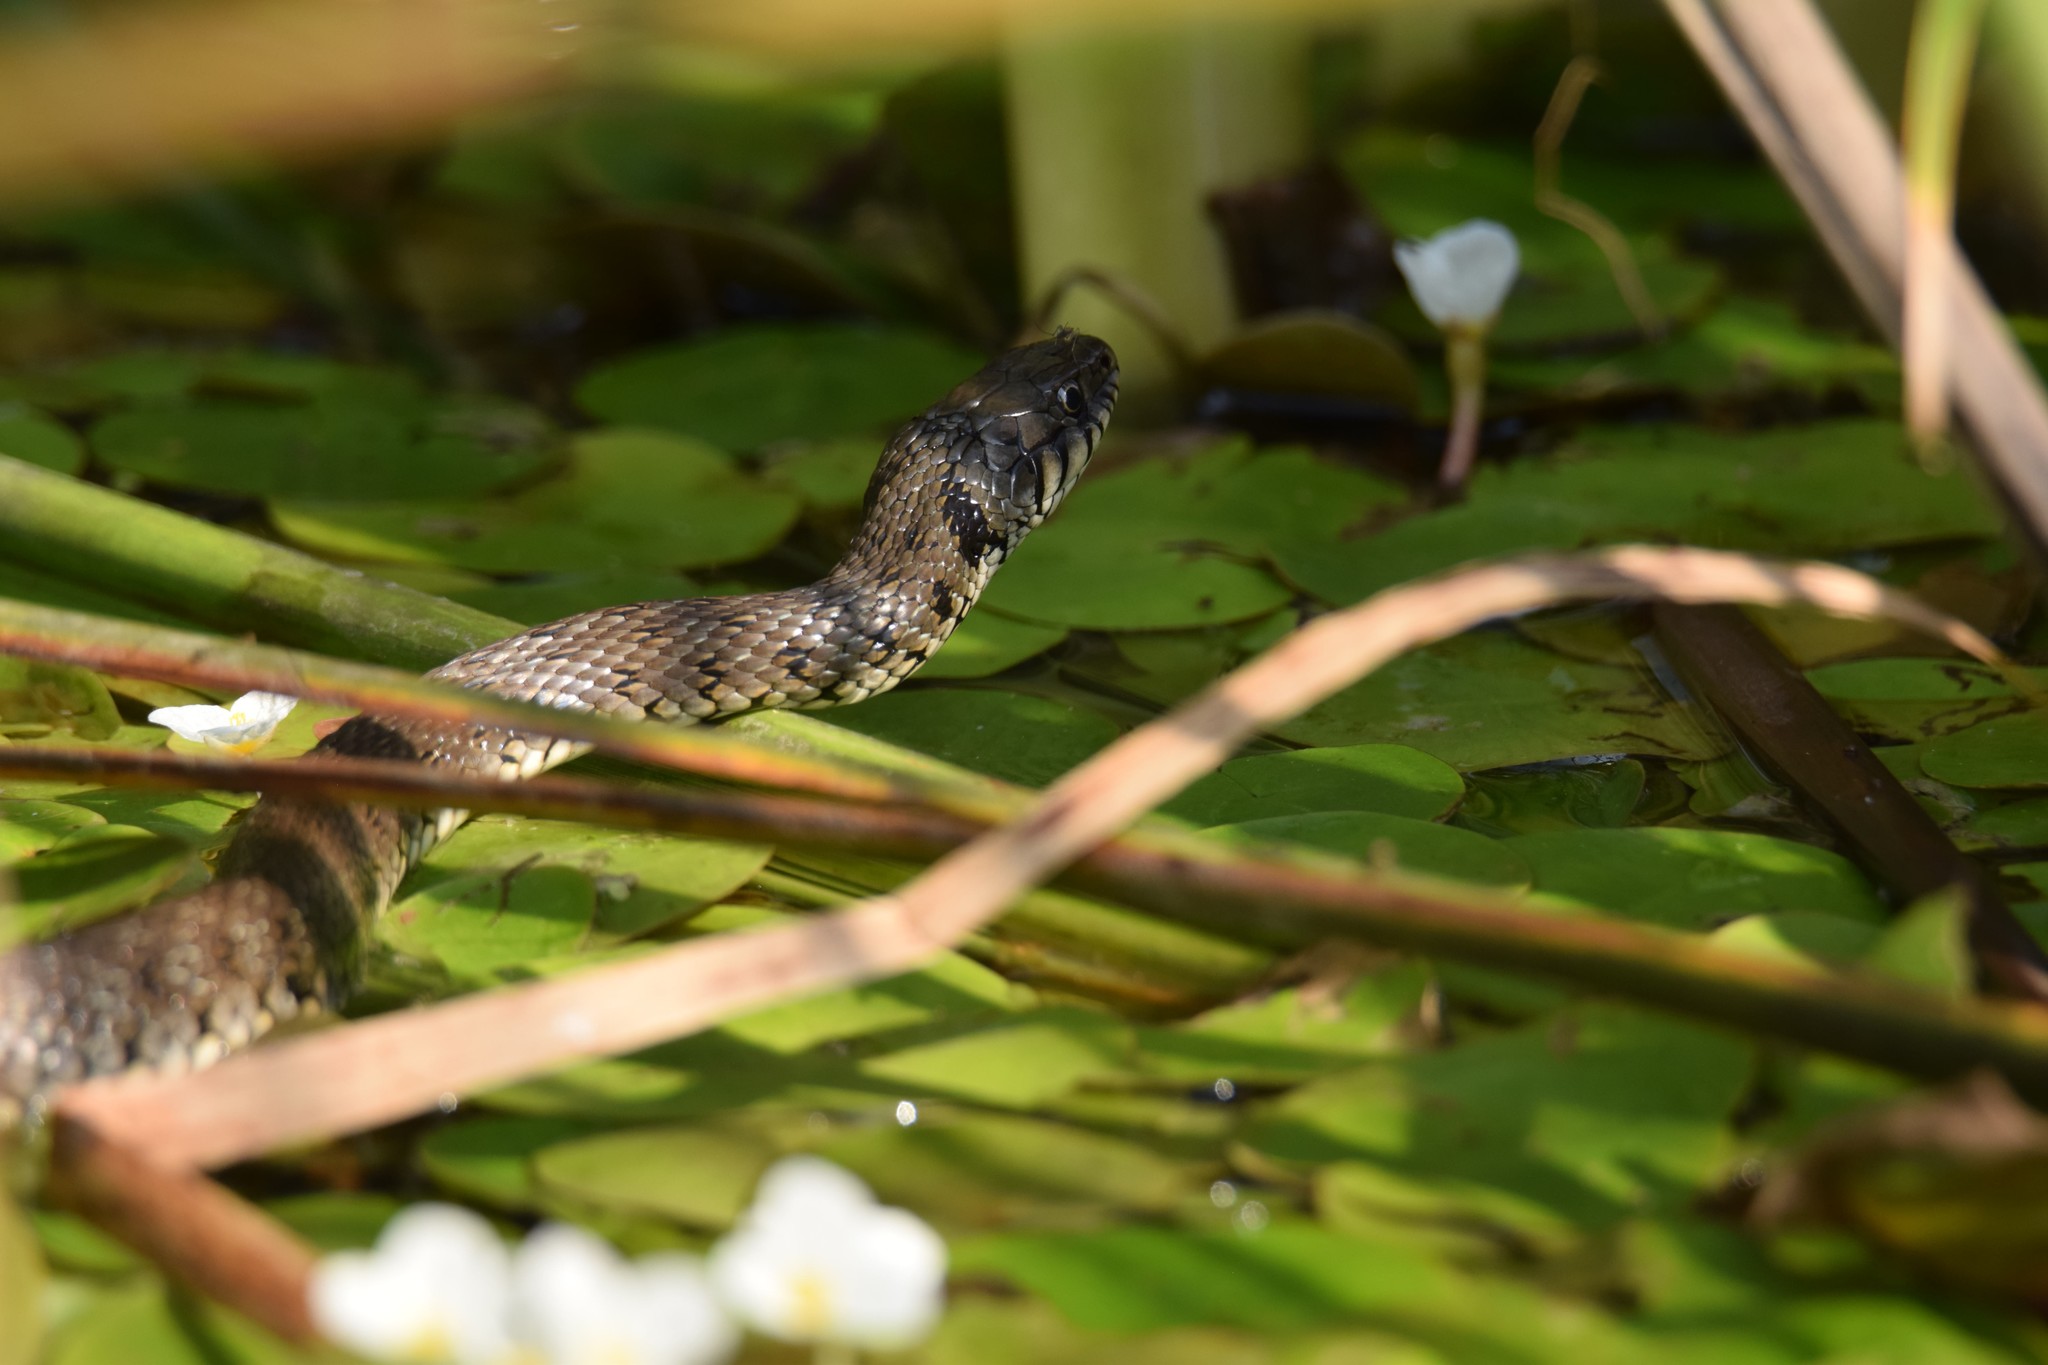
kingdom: Animalia
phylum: Chordata
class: Squamata
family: Colubridae
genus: Natrix
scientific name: Natrix natrix
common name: Grass snake
